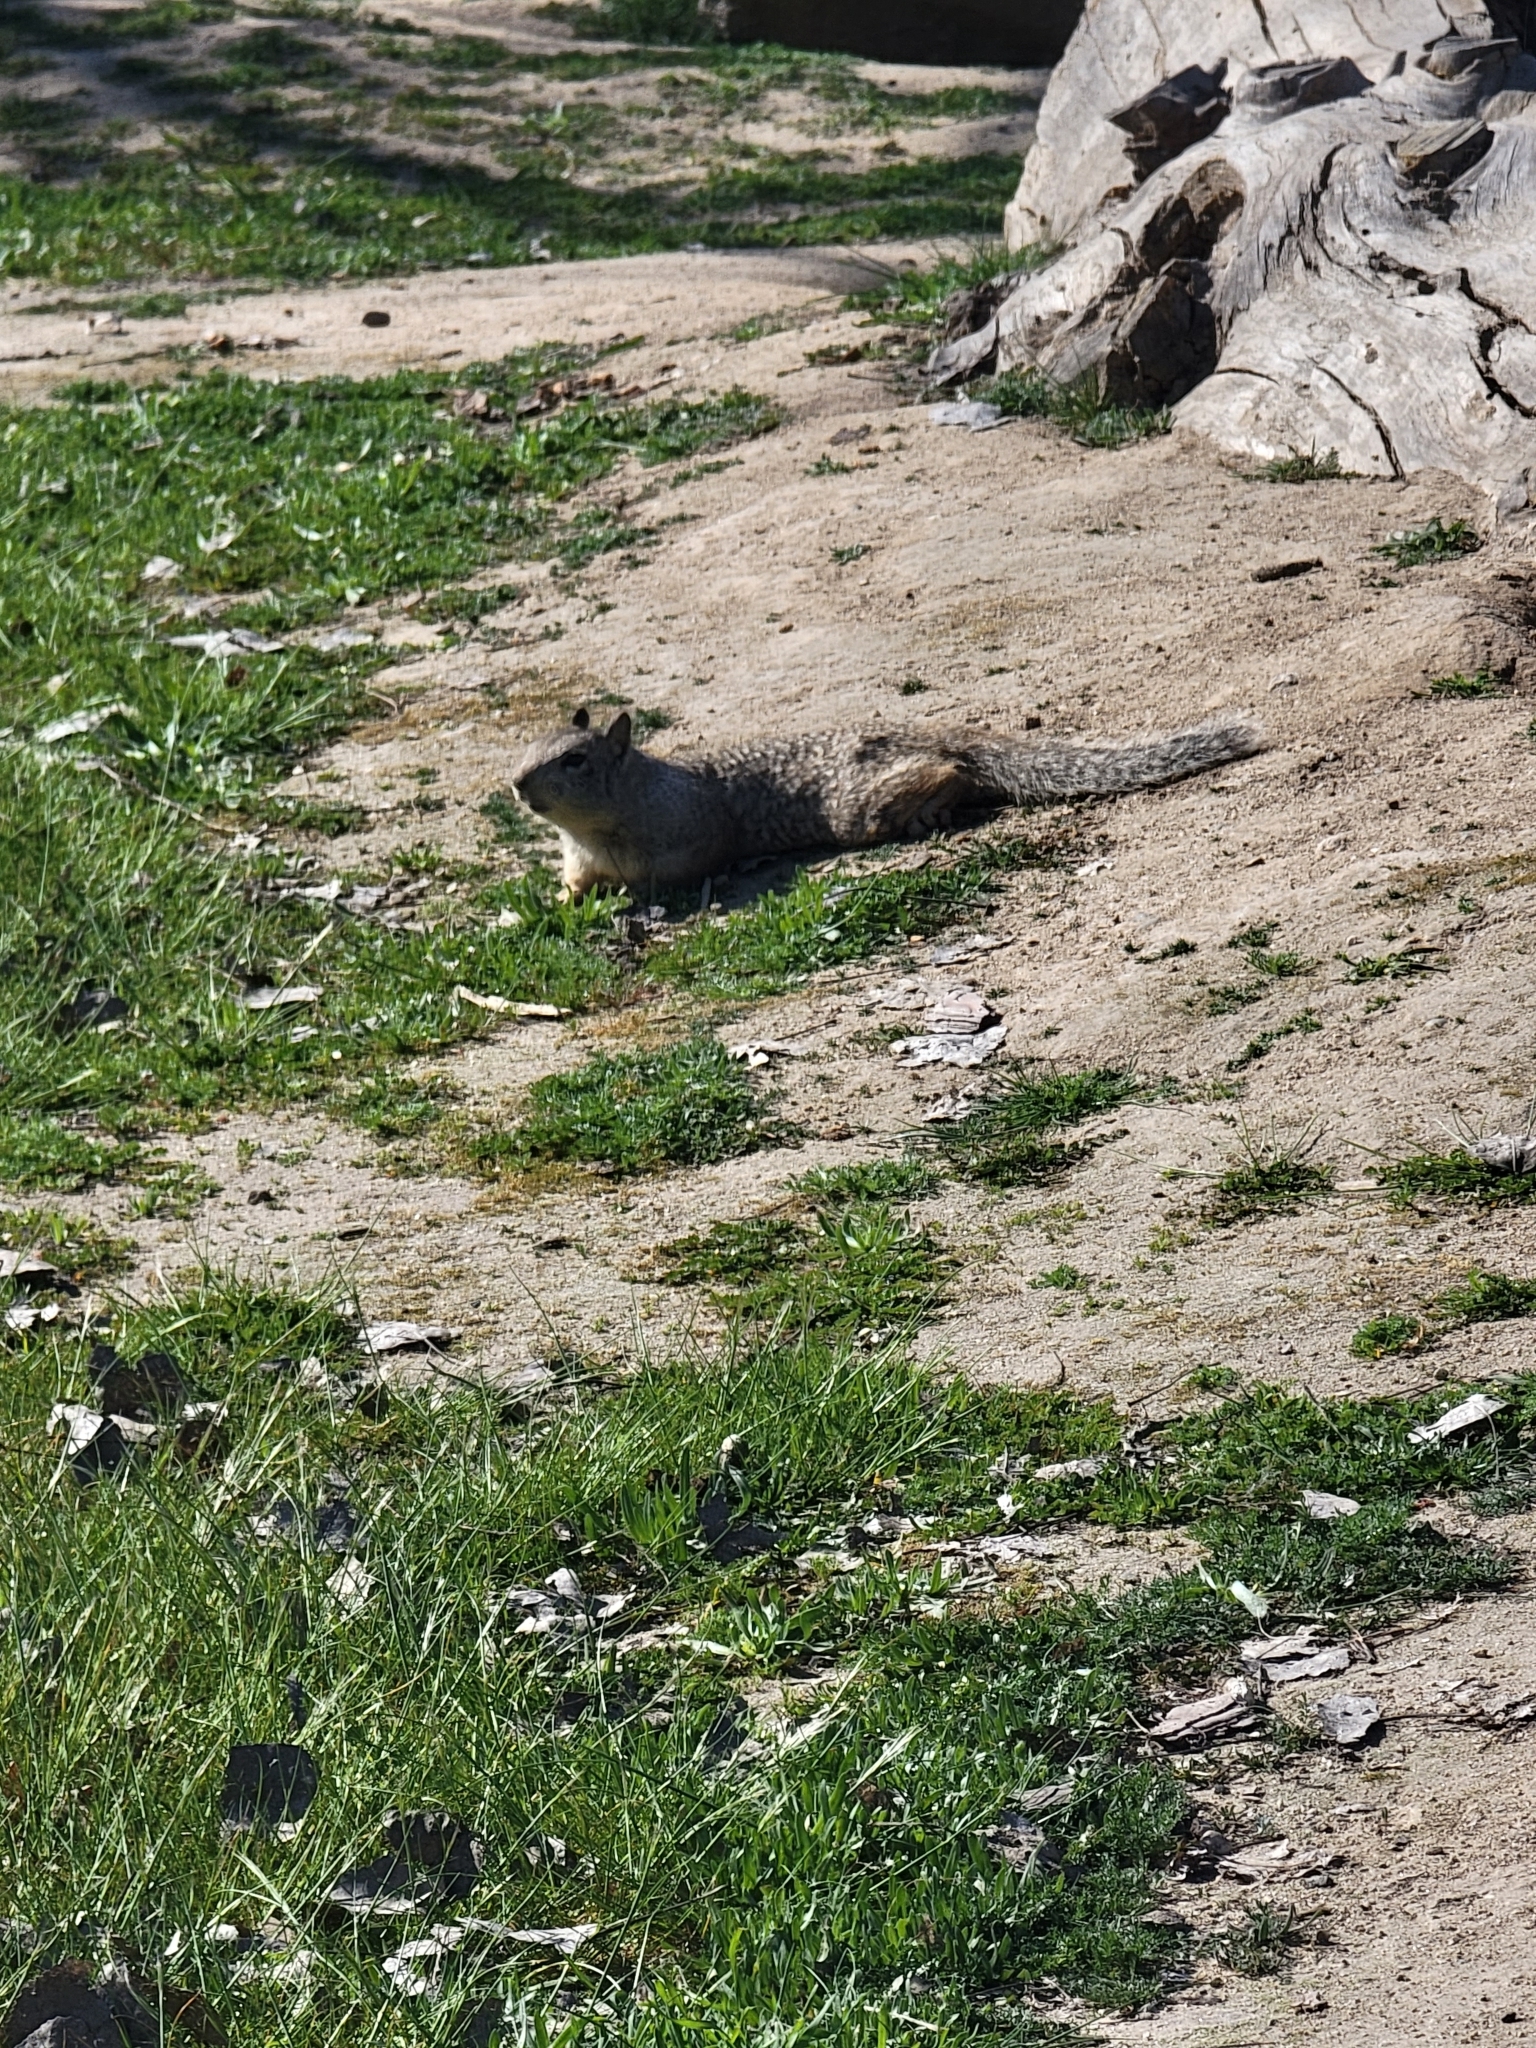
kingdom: Animalia
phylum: Chordata
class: Mammalia
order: Rodentia
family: Sciuridae
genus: Otospermophilus
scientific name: Otospermophilus beecheyi
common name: California ground squirrel
